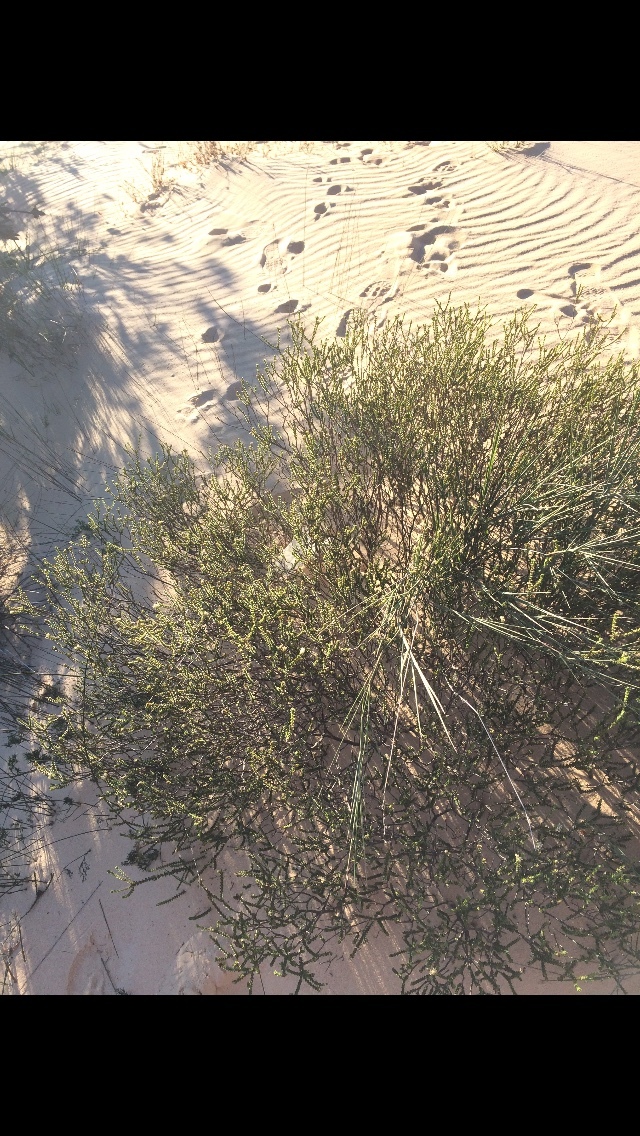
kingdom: Plantae
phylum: Tracheophyta
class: Magnoliopsida
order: Sapindales
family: Rutaceae
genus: Euchaetis
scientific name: Euchaetis pungens
